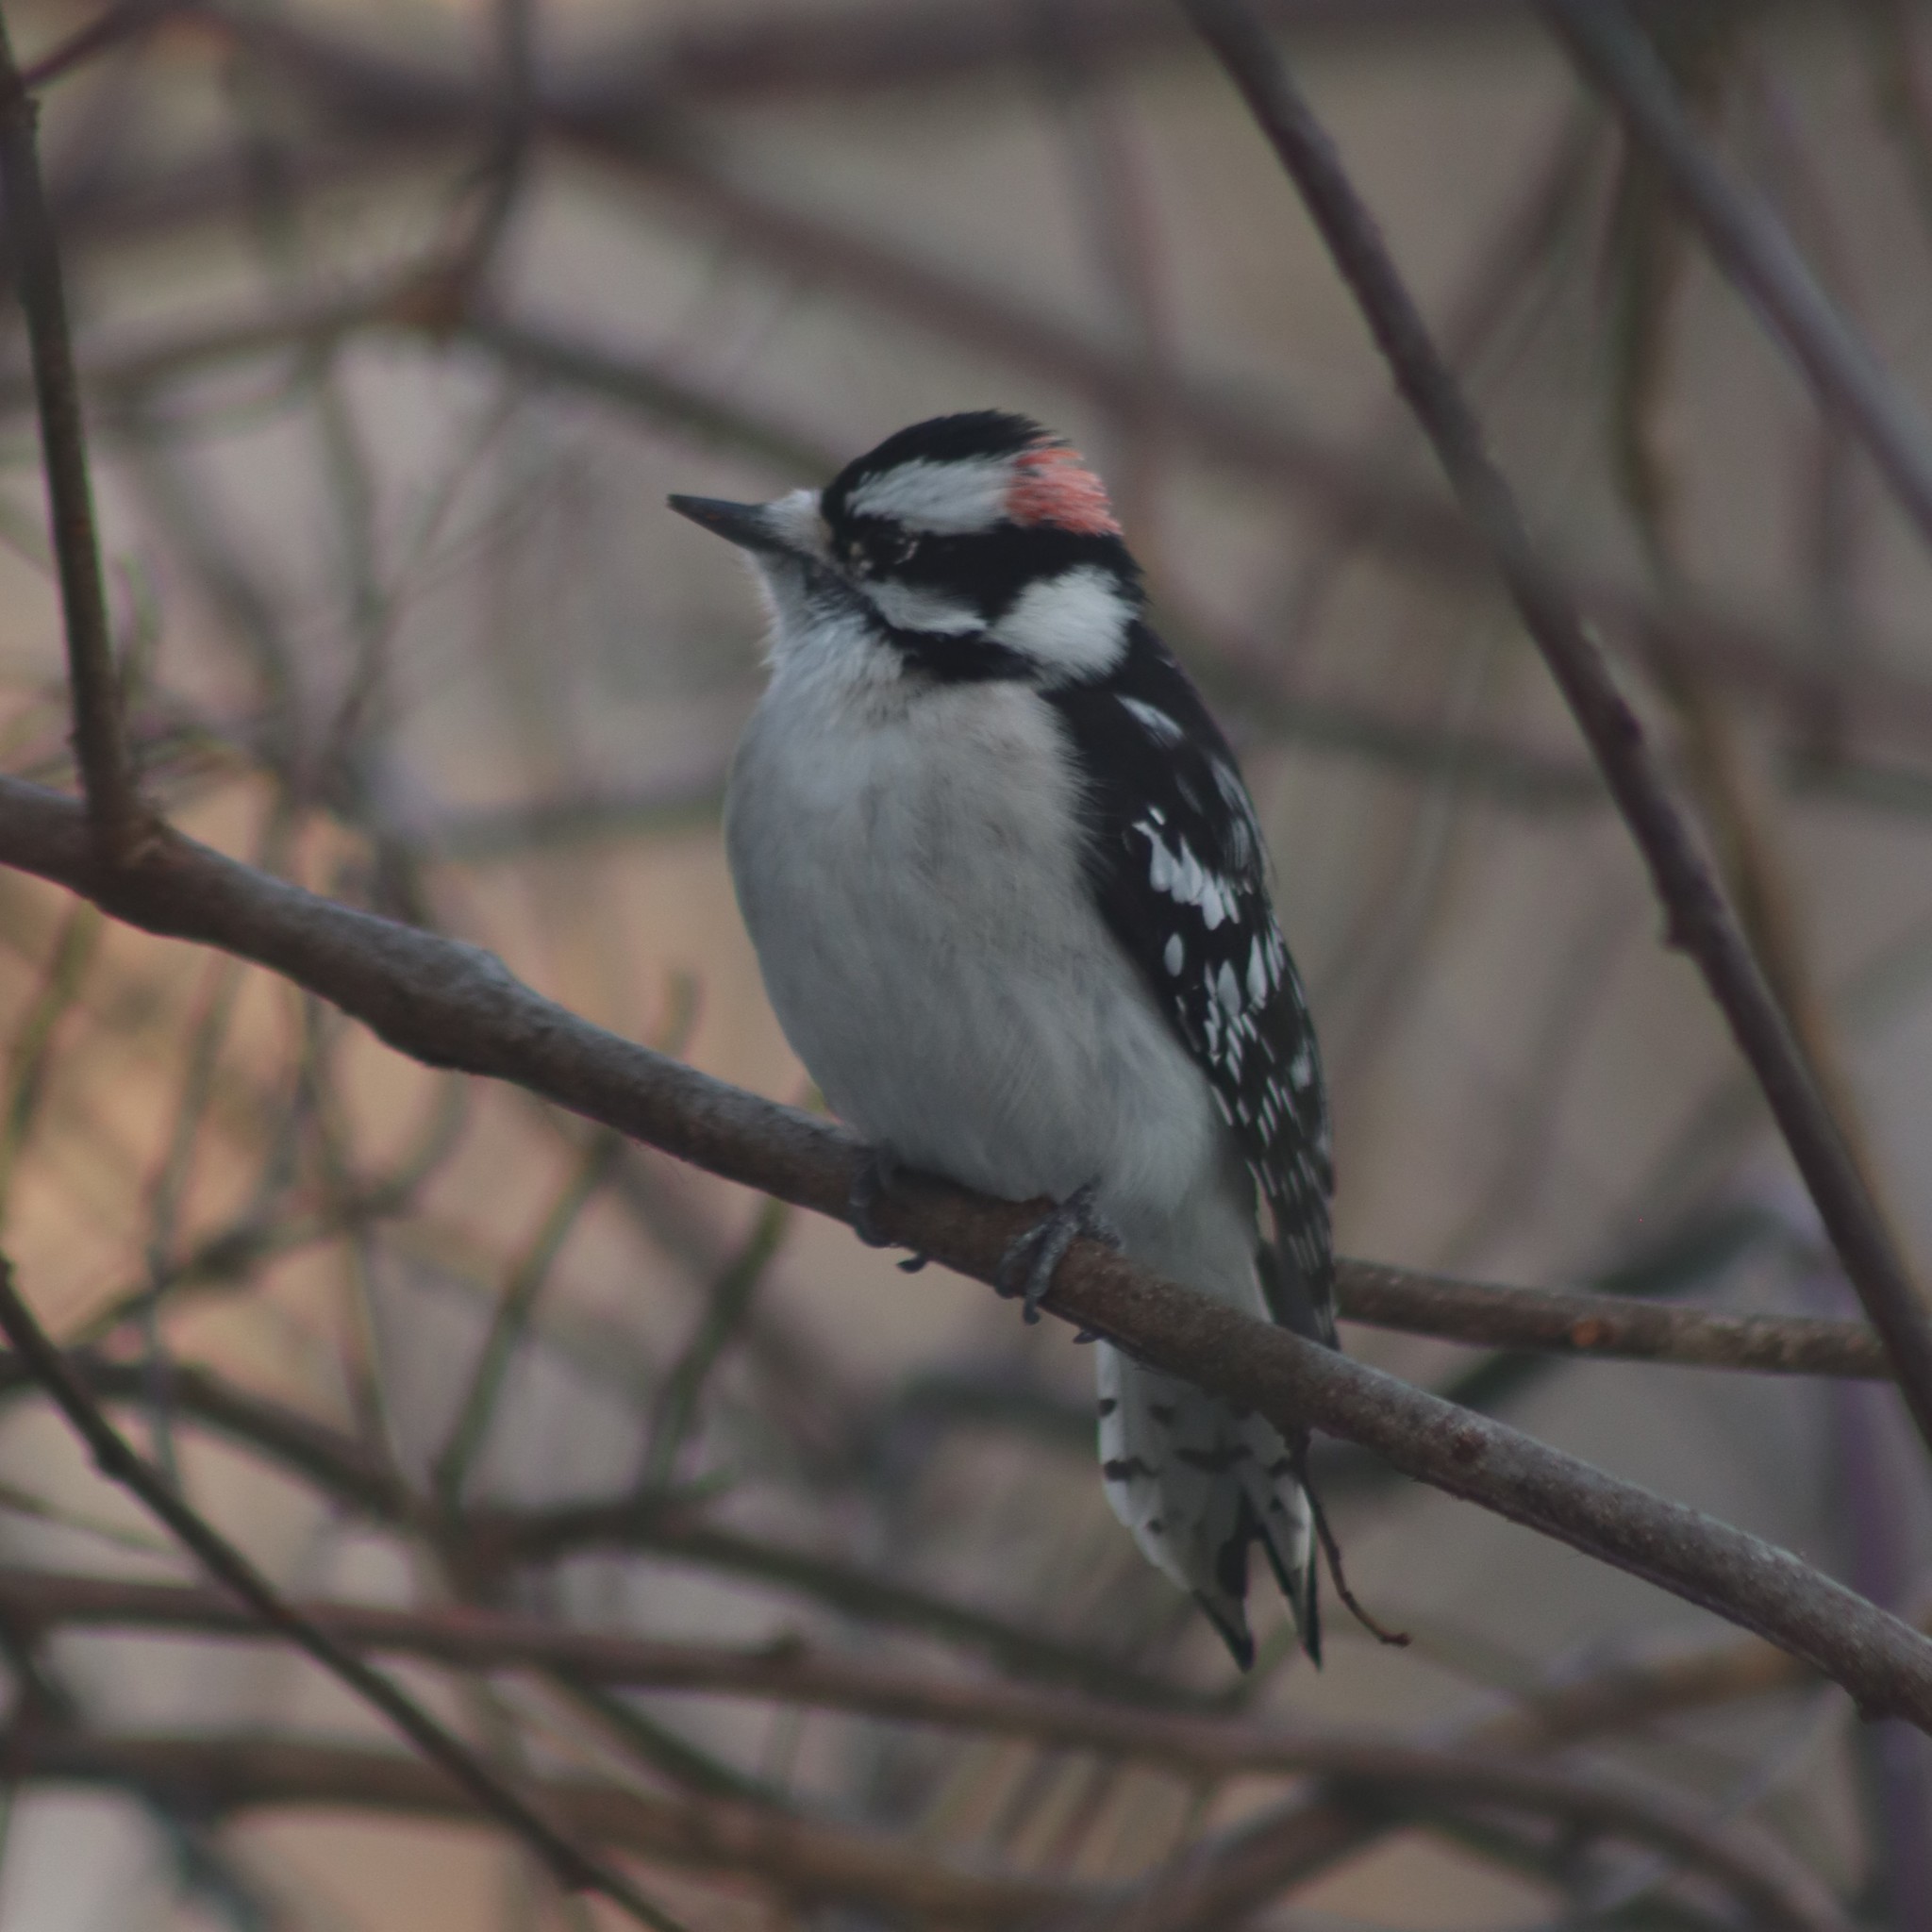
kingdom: Animalia
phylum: Chordata
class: Aves
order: Piciformes
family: Picidae
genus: Dryobates
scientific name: Dryobates pubescens
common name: Downy woodpecker
